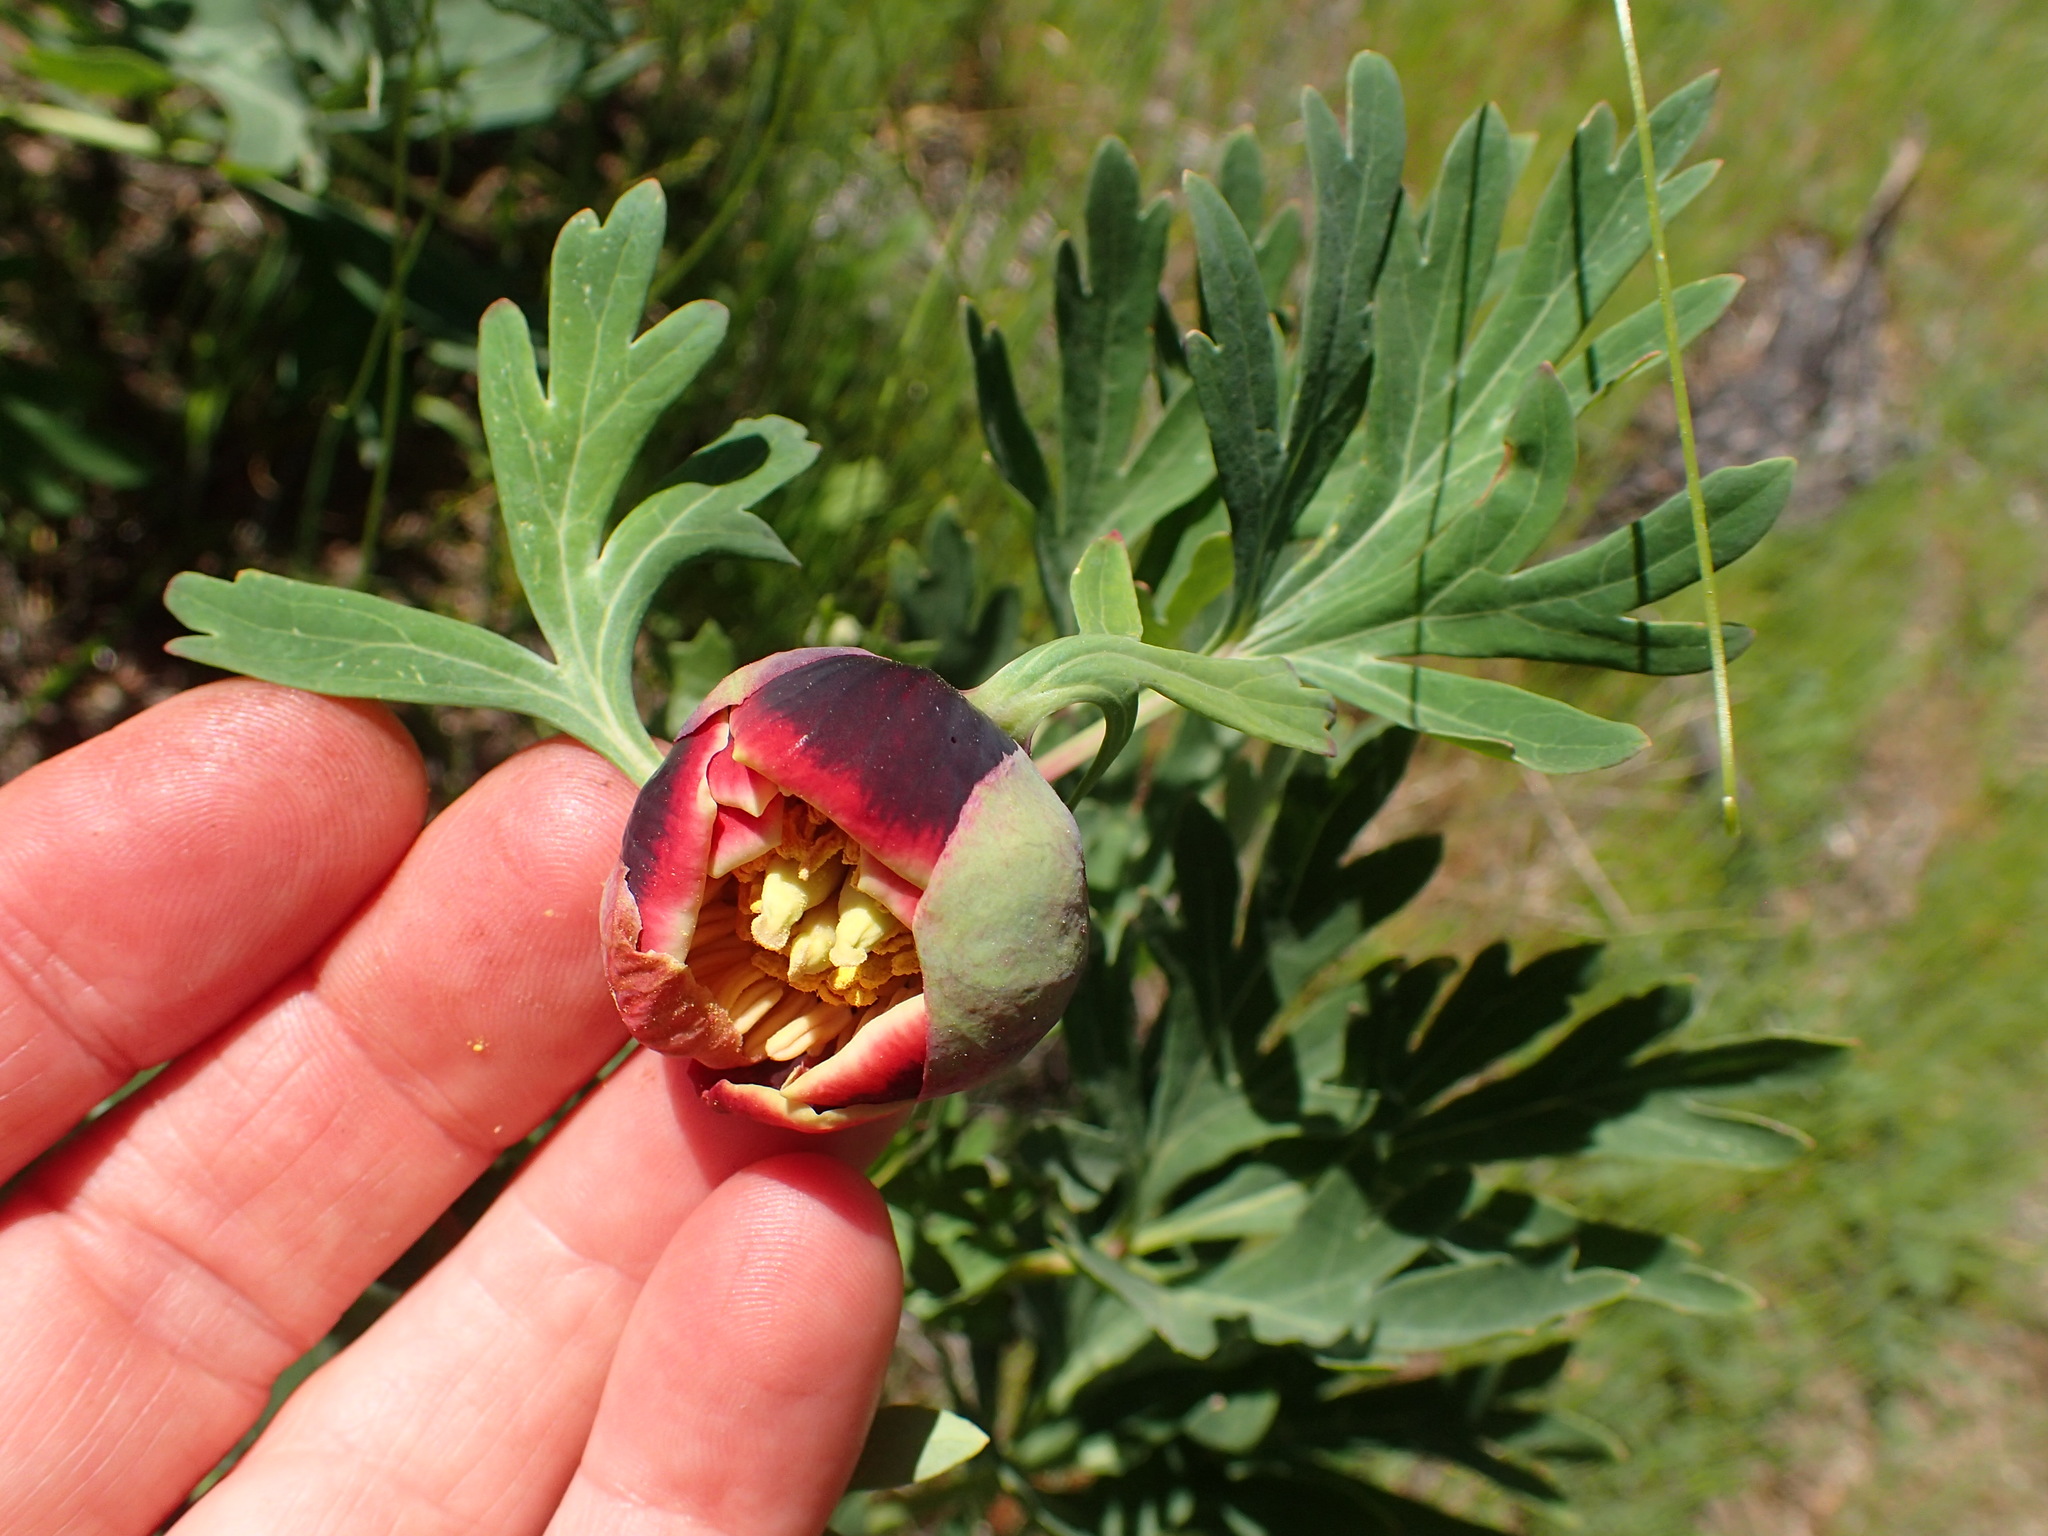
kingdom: Plantae
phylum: Tracheophyta
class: Magnoliopsida
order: Saxifragales
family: Paeoniaceae
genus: Paeonia
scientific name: Paeonia californica
